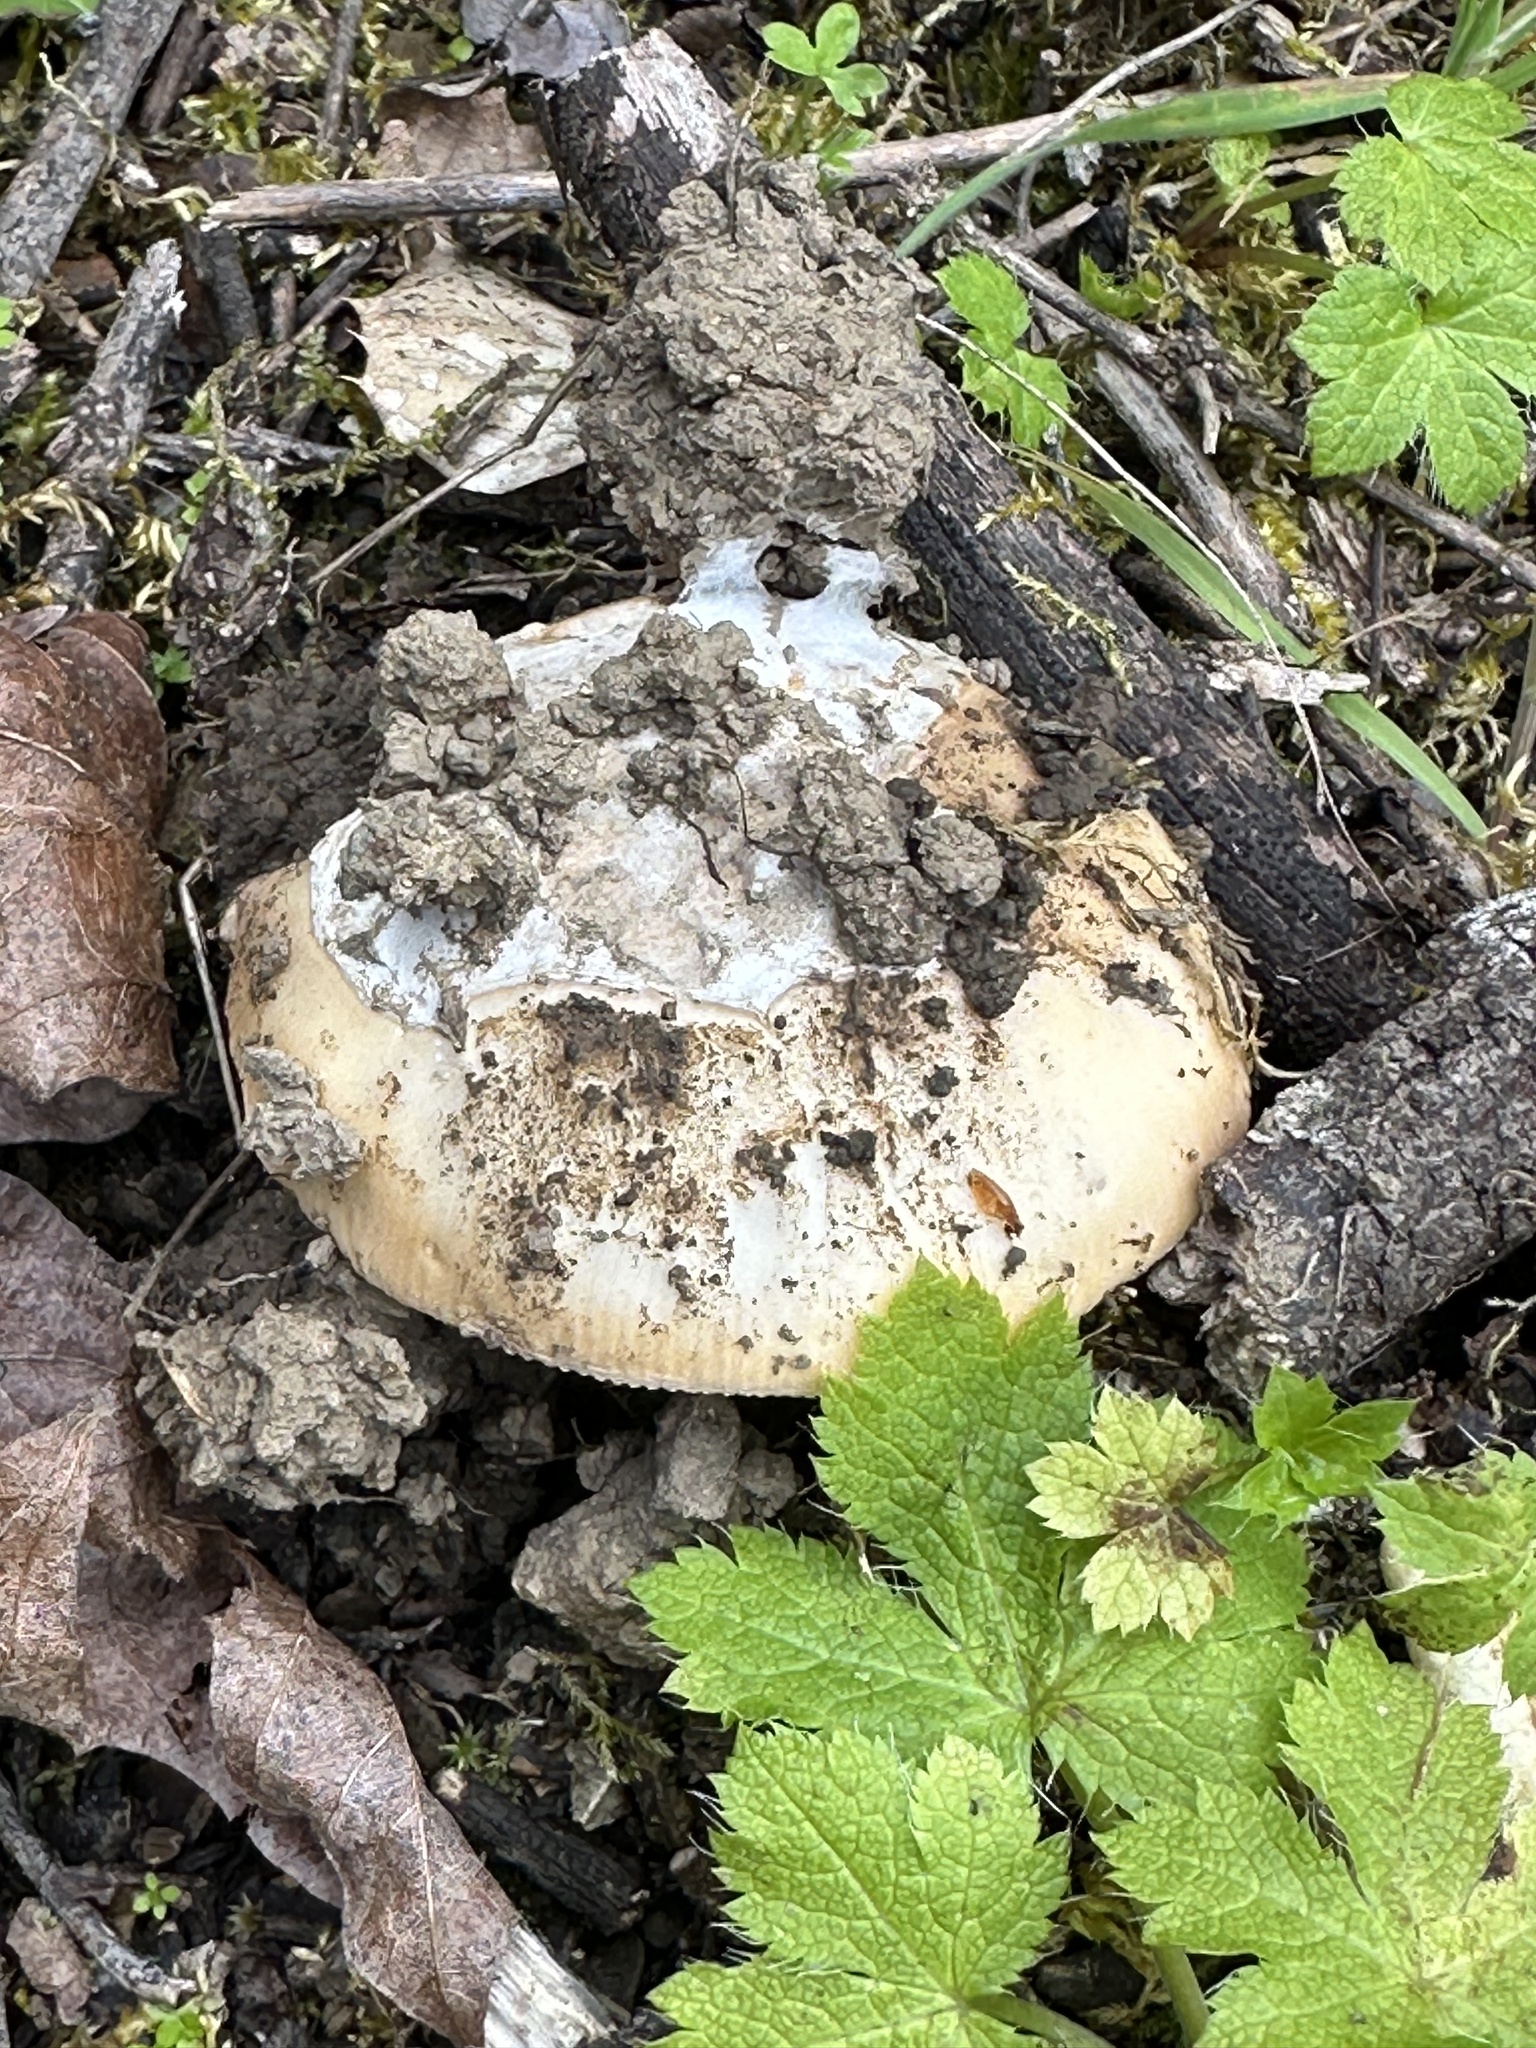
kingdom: Fungi
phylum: Basidiomycota
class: Agaricomycetes
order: Agaricales
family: Amanitaceae
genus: Amanita
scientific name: Amanita velosa
